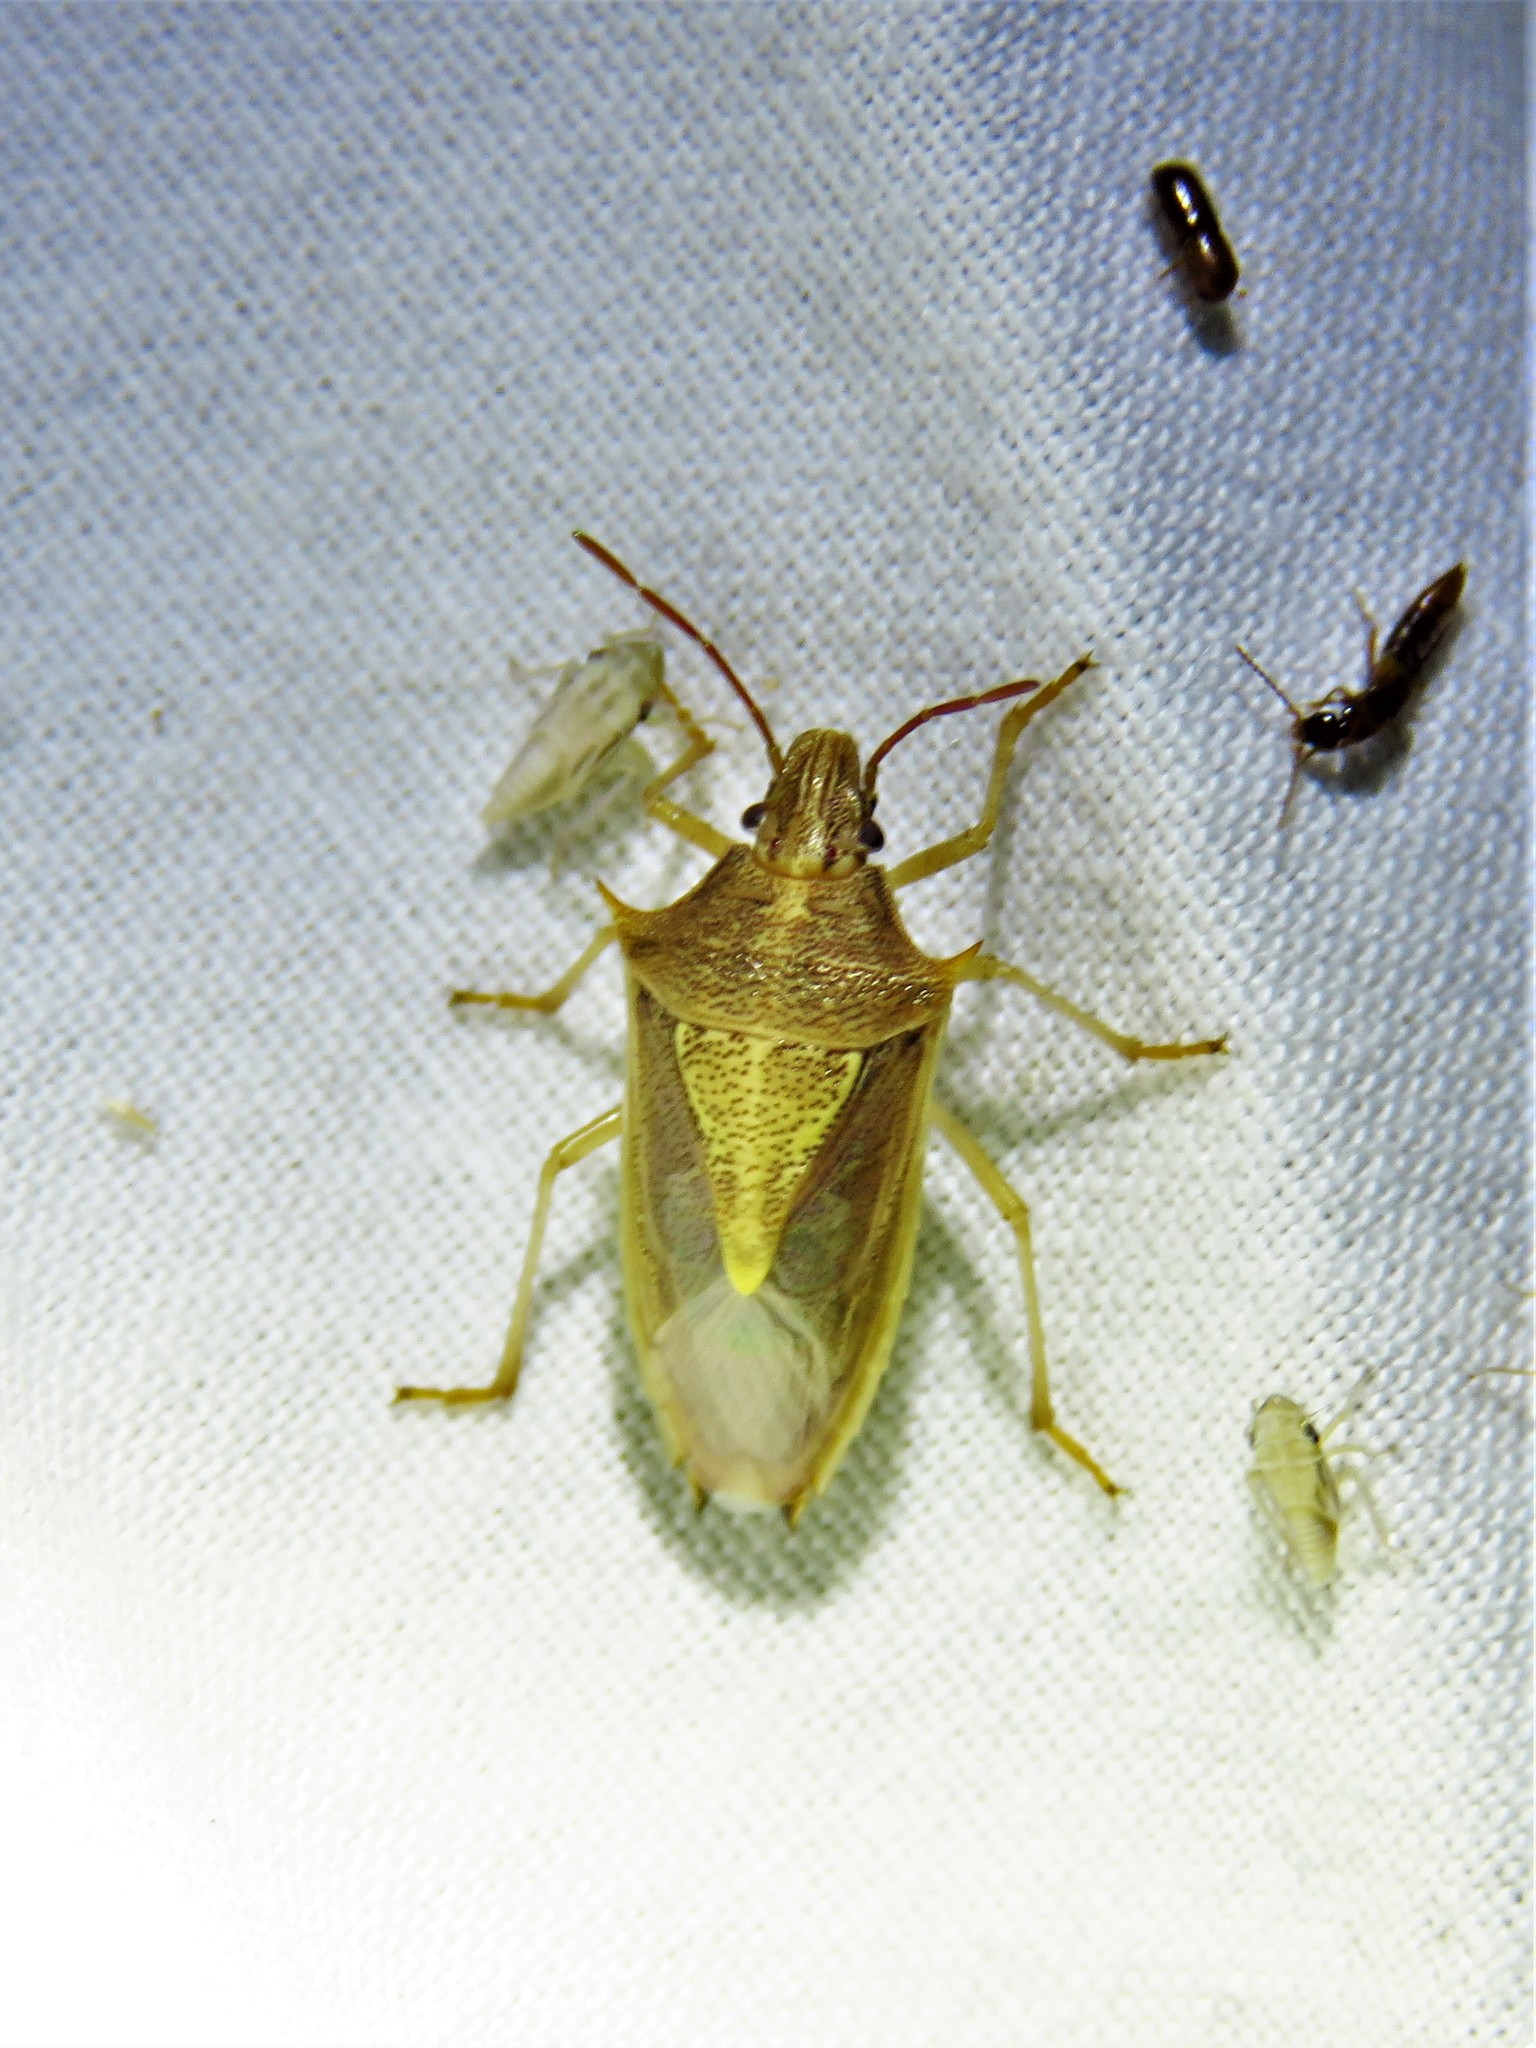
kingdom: Animalia
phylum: Arthropoda
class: Insecta
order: Hemiptera
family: Pentatomidae
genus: Oebalus
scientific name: Oebalus pugnax
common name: Rice stink bug
